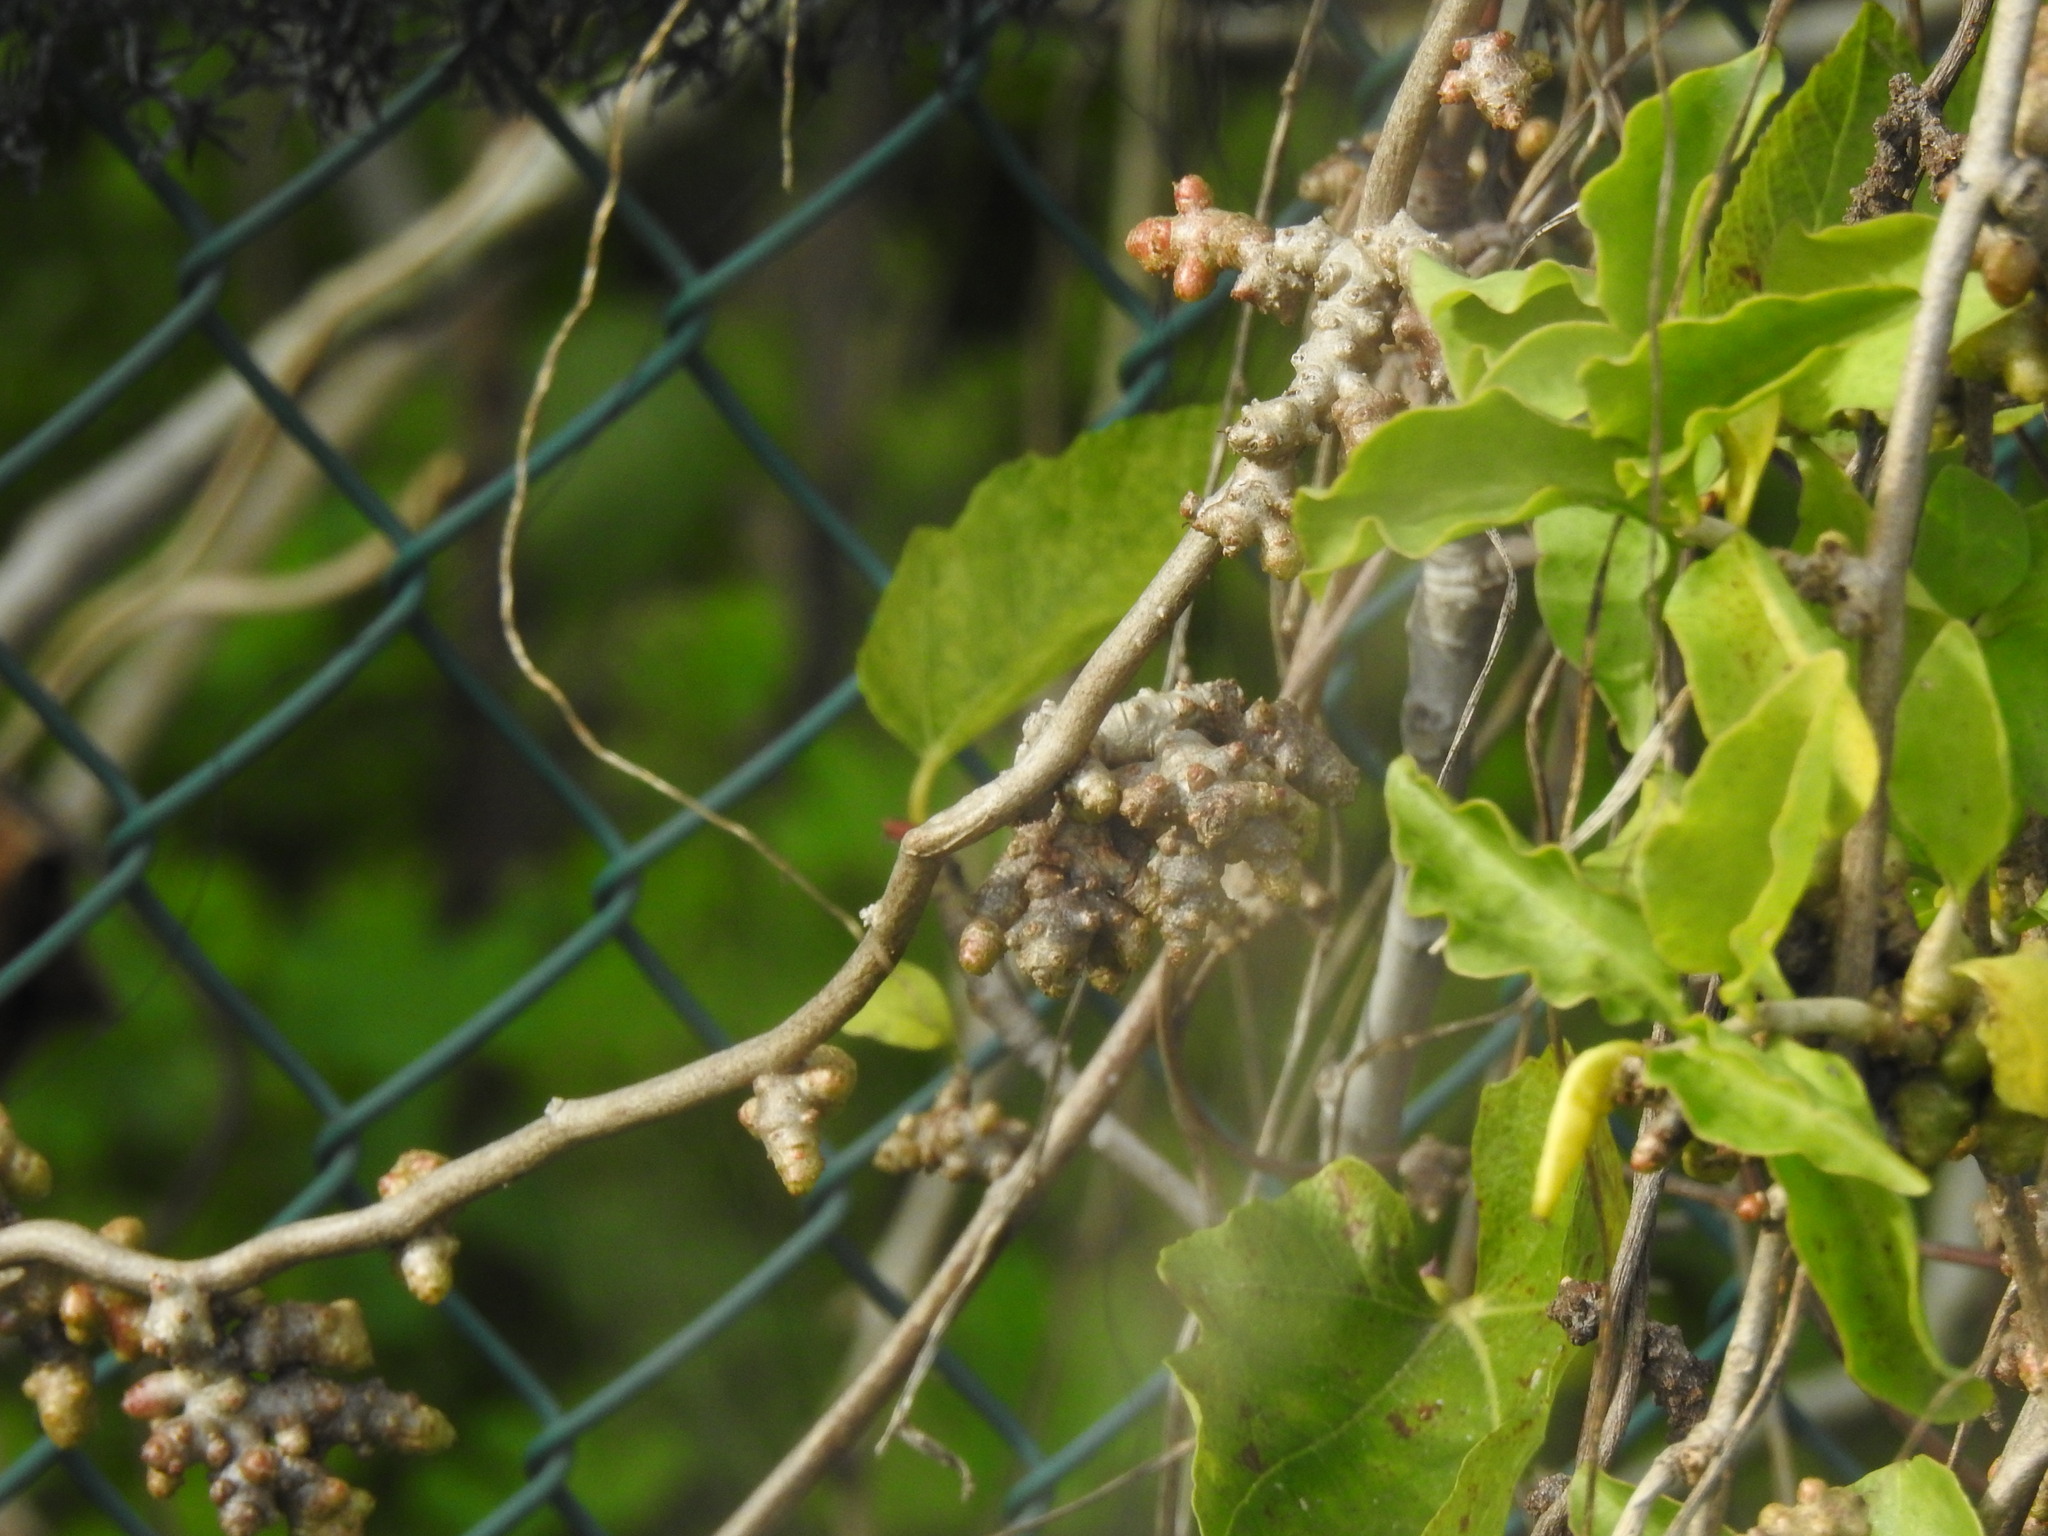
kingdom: Plantae
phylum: Tracheophyta
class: Magnoliopsida
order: Caryophyllales
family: Basellaceae
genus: Anredera
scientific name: Anredera cordifolia
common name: Heartleaf madeiravine
